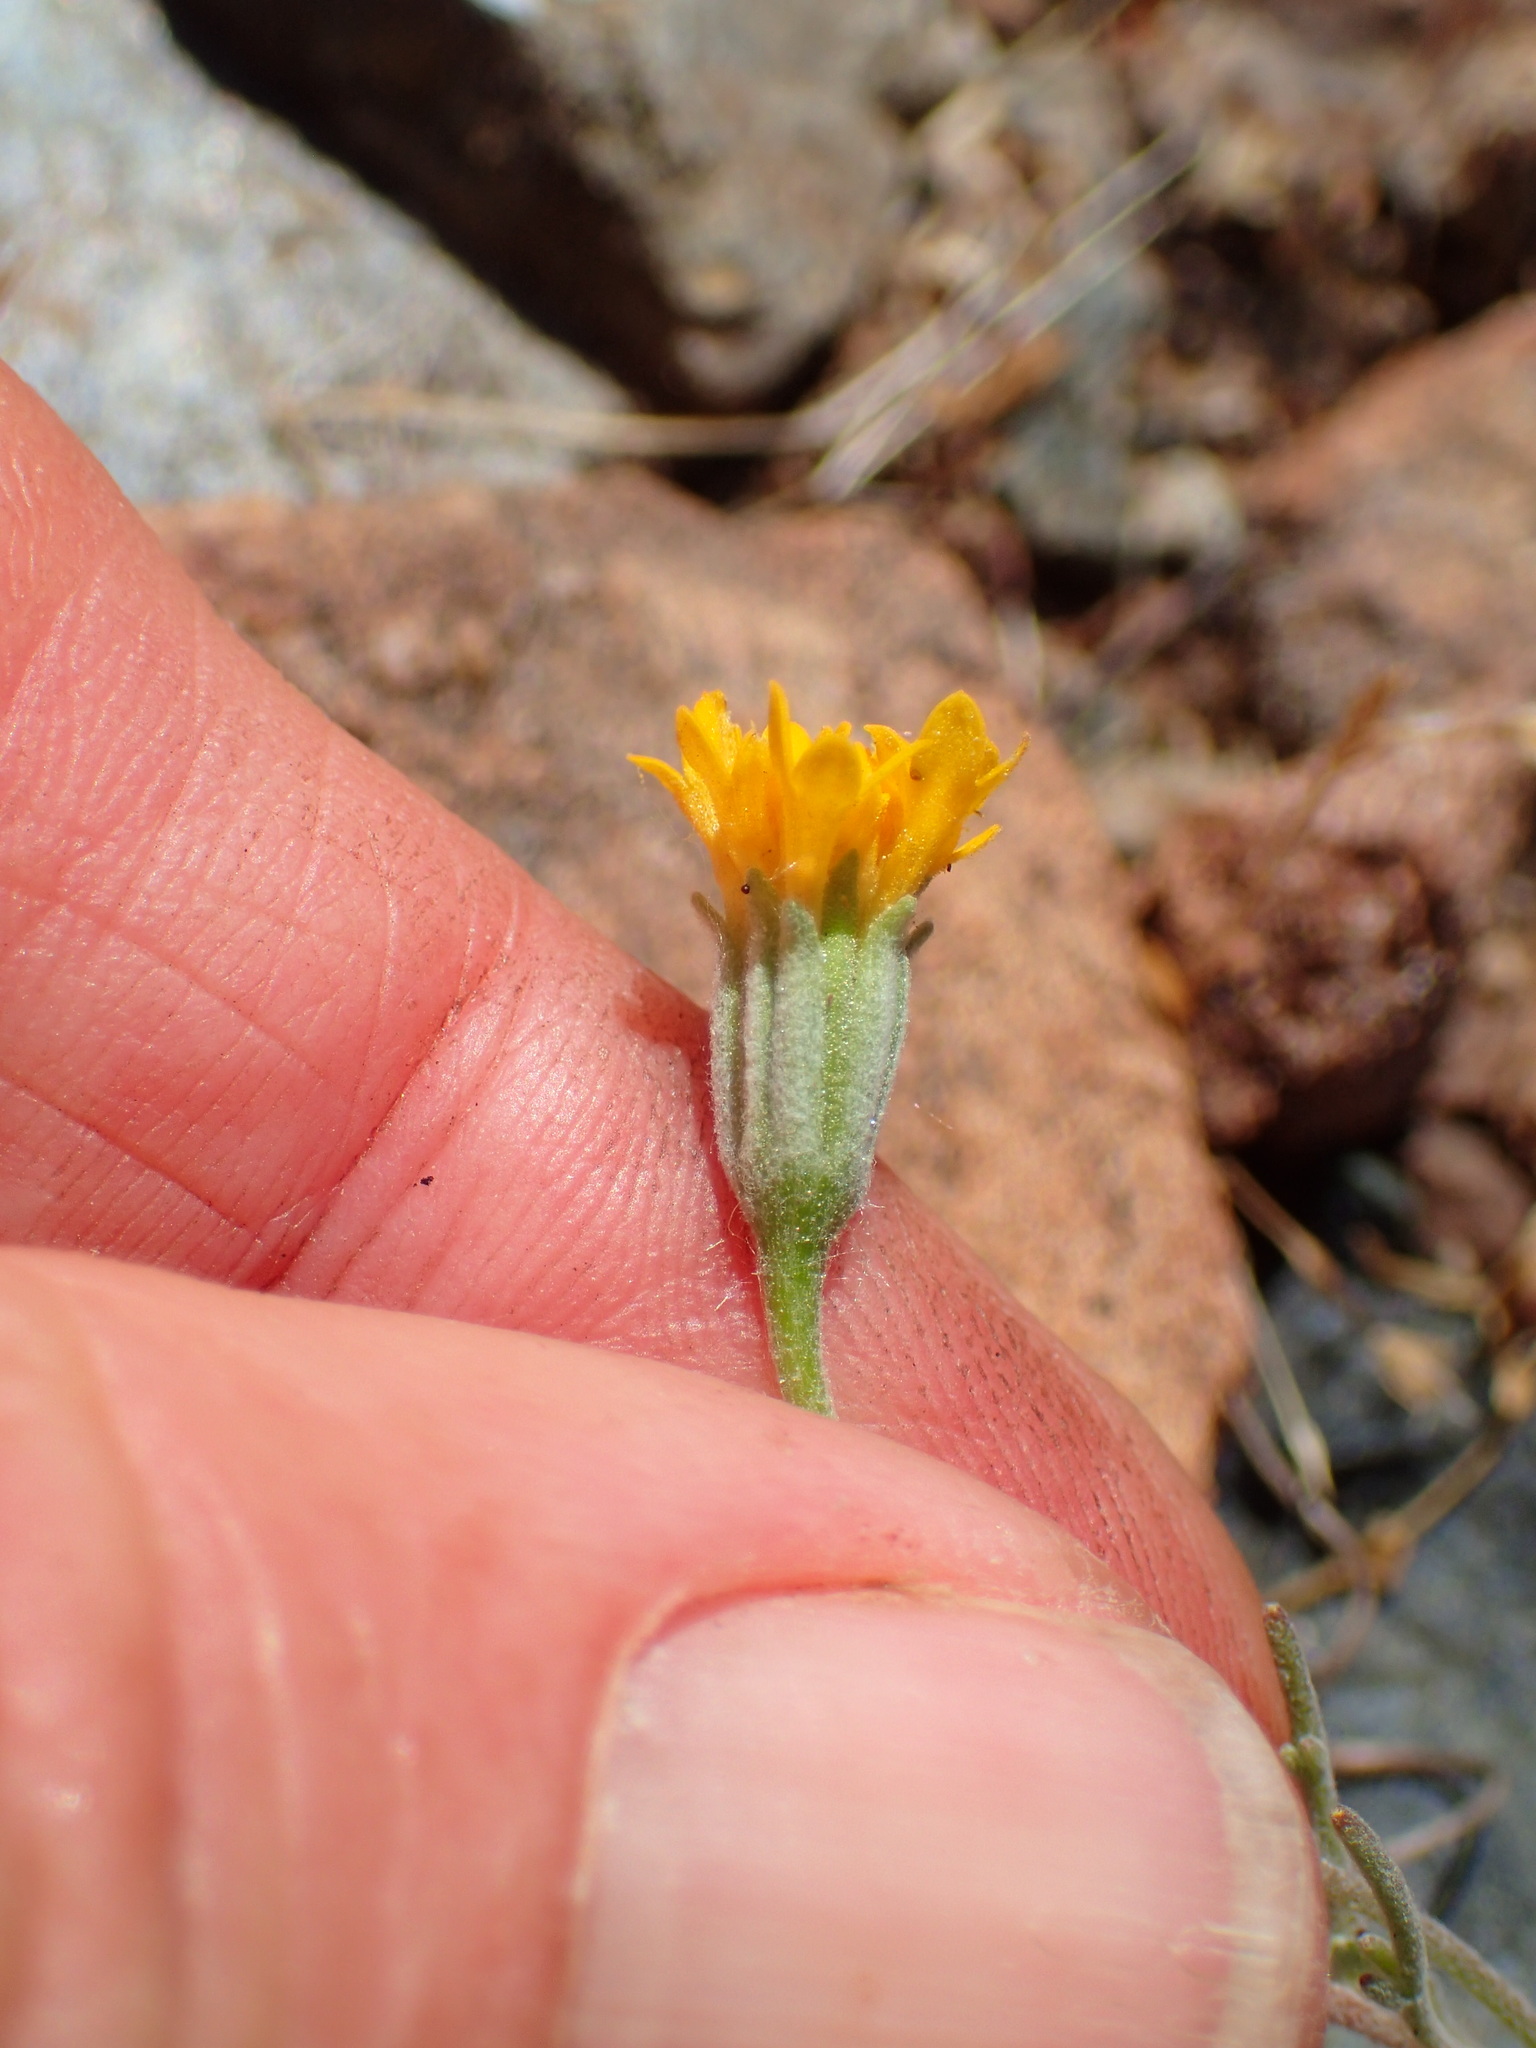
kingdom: Plantae
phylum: Tracheophyta
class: Magnoliopsida
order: Asterales
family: Asteraceae
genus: Chaenactis
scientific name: Chaenactis glabriuscula
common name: Yellow pincushion
